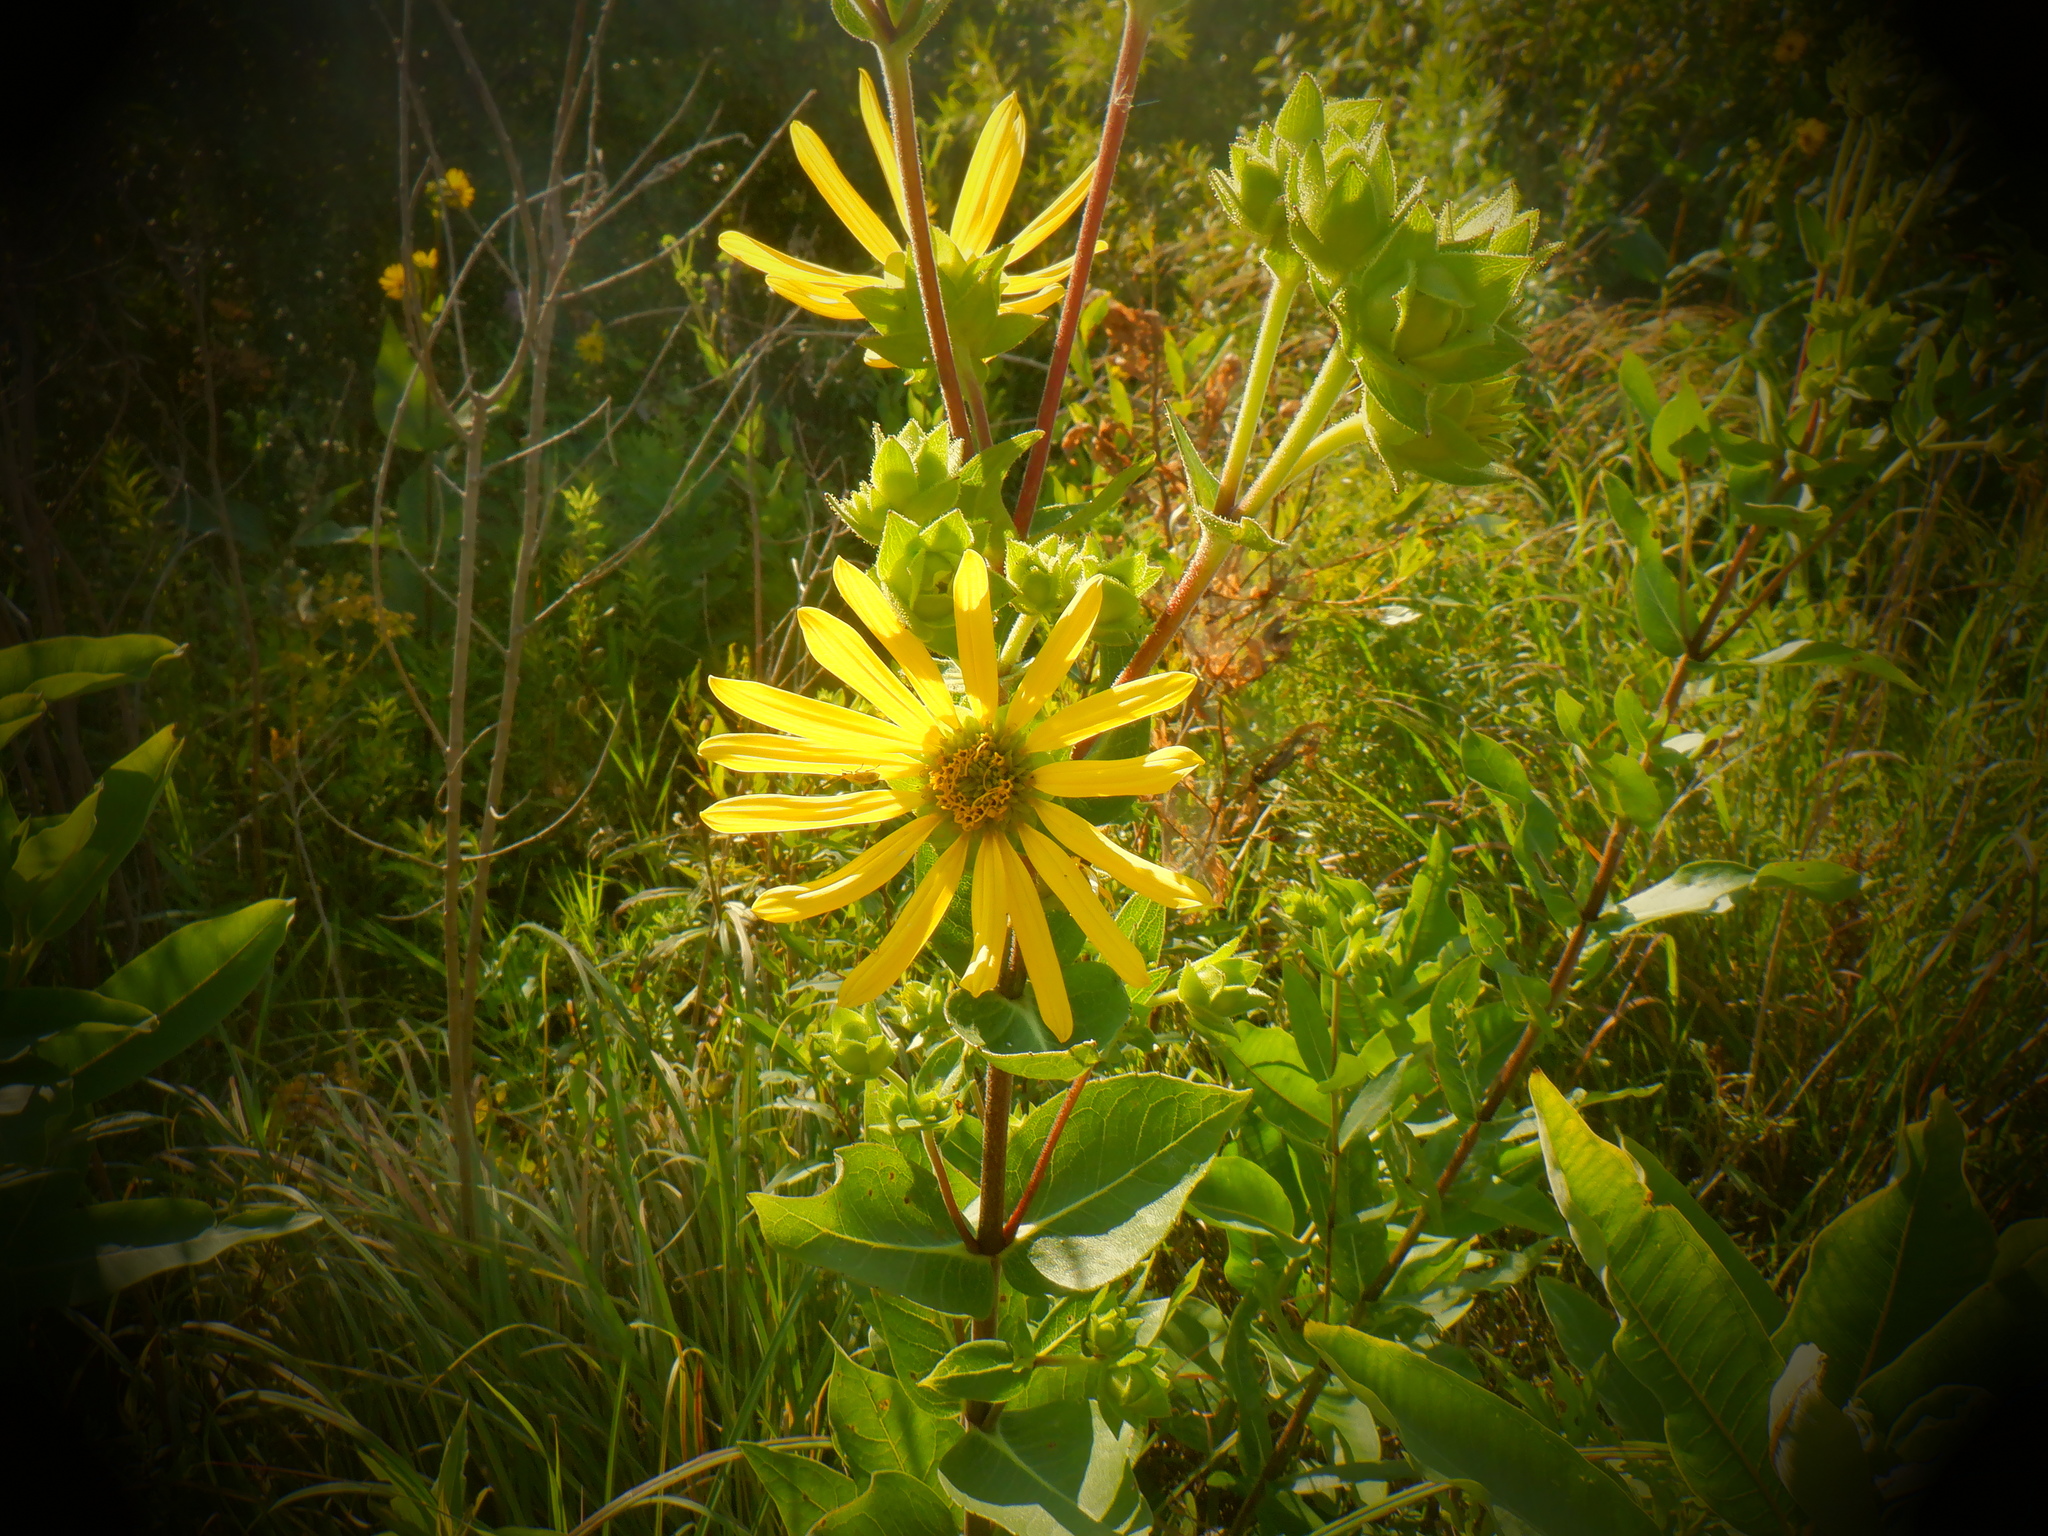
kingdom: Plantae
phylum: Tracheophyta
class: Magnoliopsida
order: Asterales
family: Asteraceae
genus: Silphium
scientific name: Silphium integrifolium
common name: Whole-leaf rosinweed
